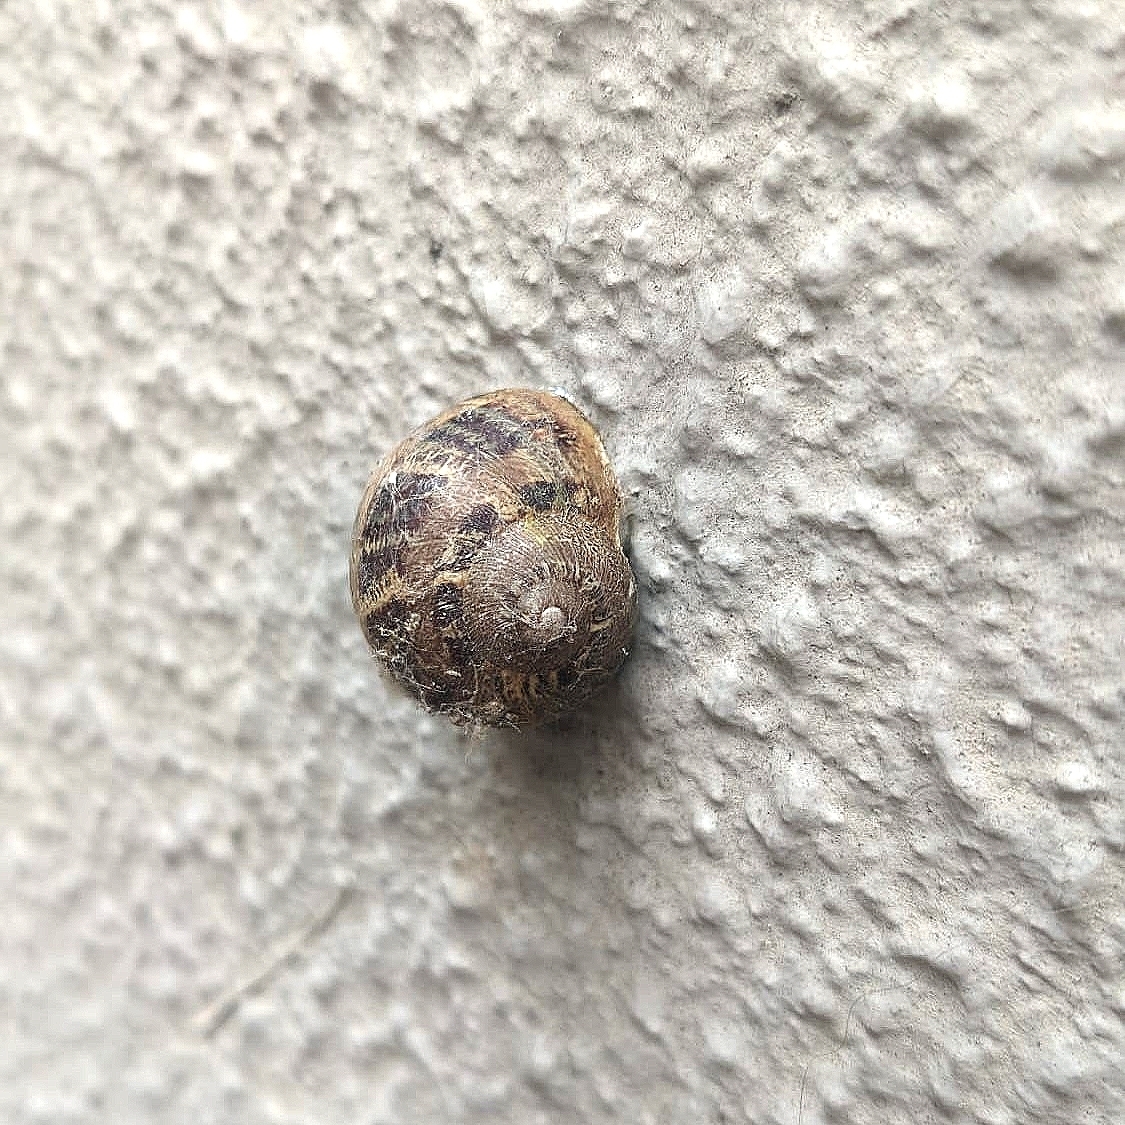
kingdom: Animalia
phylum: Mollusca
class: Gastropoda
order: Stylommatophora
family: Helicidae
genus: Cornu
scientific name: Cornu aspersum
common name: Brown garden snail
